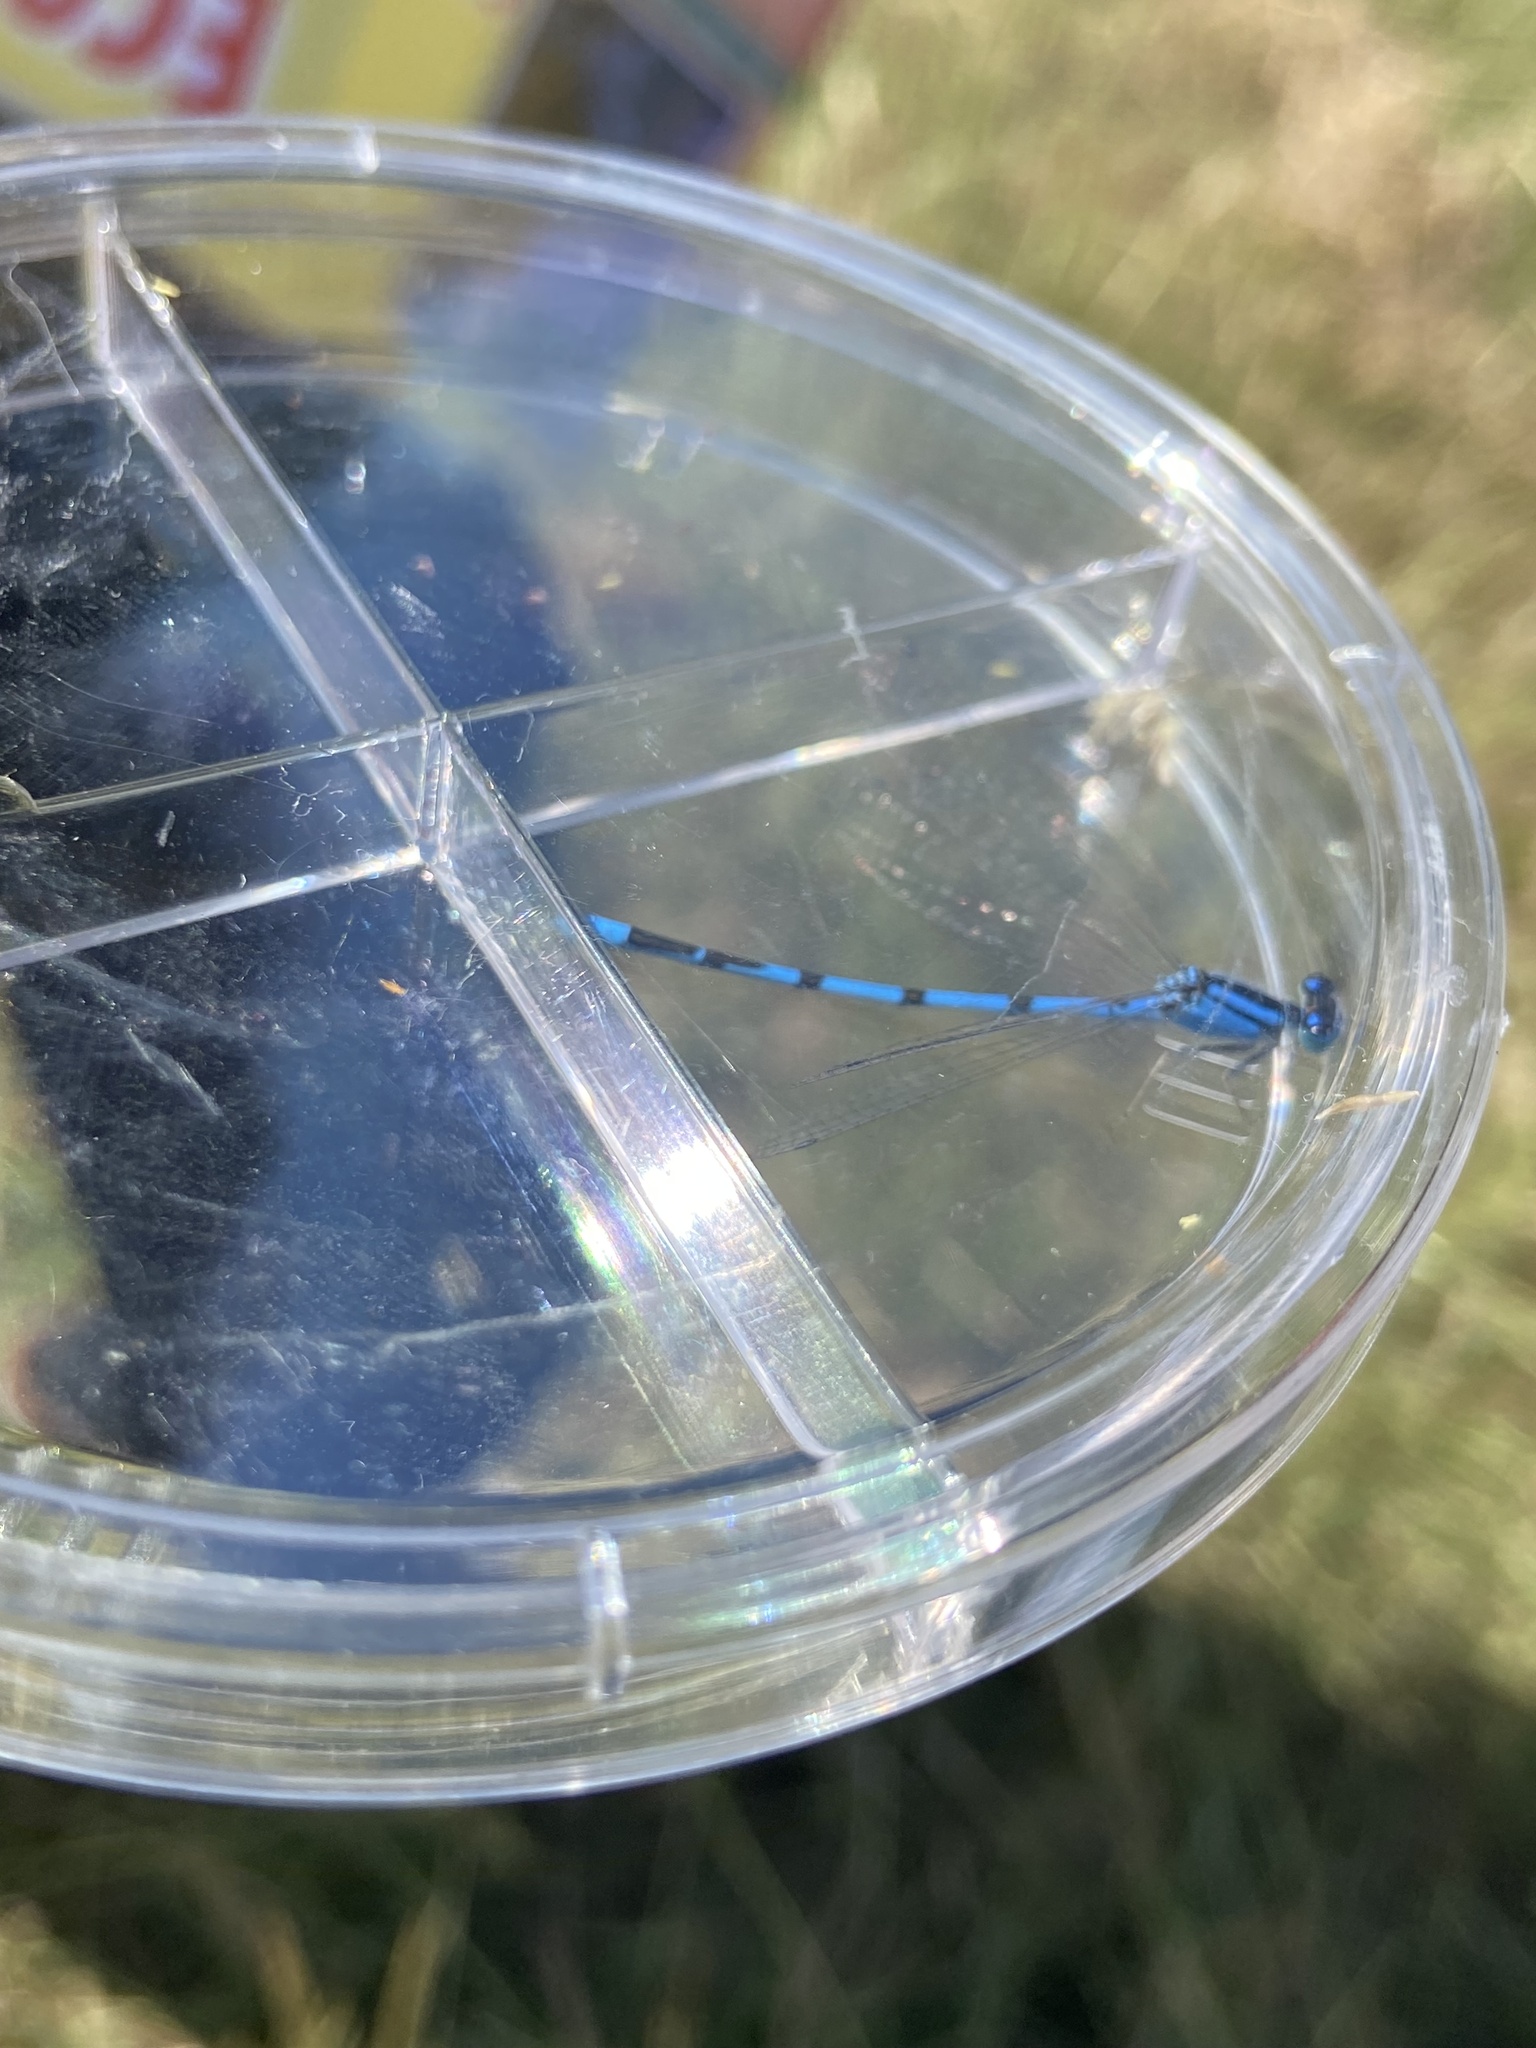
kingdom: Animalia
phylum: Arthropoda
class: Insecta
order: Odonata
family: Coenagrionidae
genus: Enallagma
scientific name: Enallagma civile
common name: Damselfly
